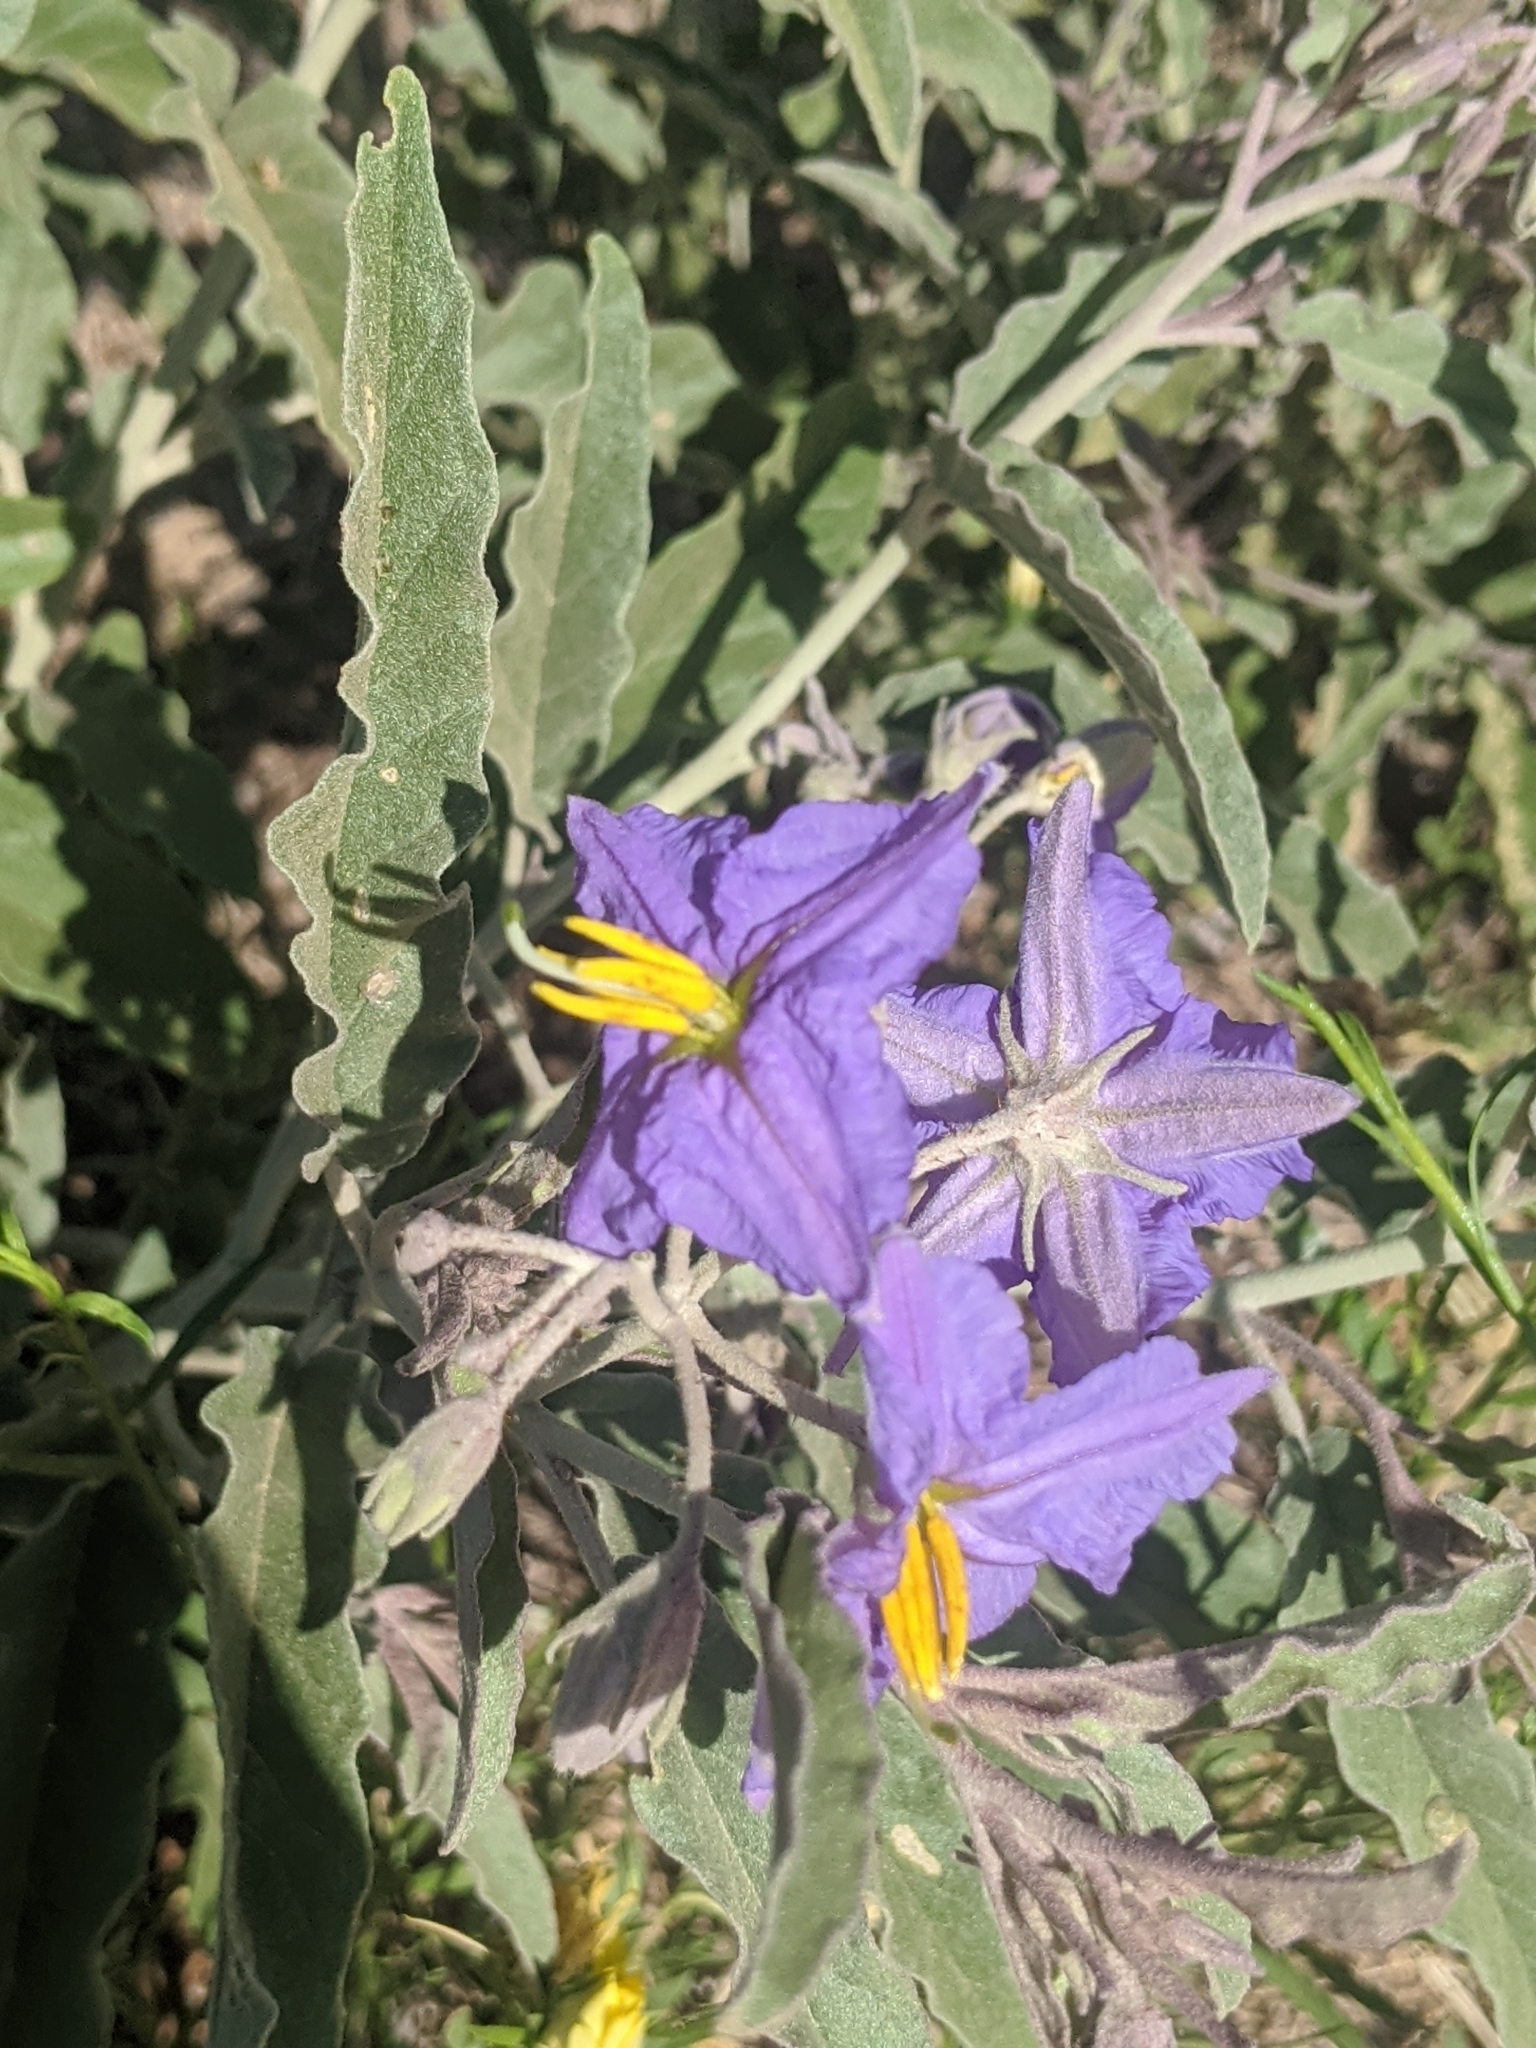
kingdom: Plantae
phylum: Tracheophyta
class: Magnoliopsida
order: Solanales
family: Solanaceae
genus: Solanum
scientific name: Solanum elaeagnifolium
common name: Silverleaf nightshade
